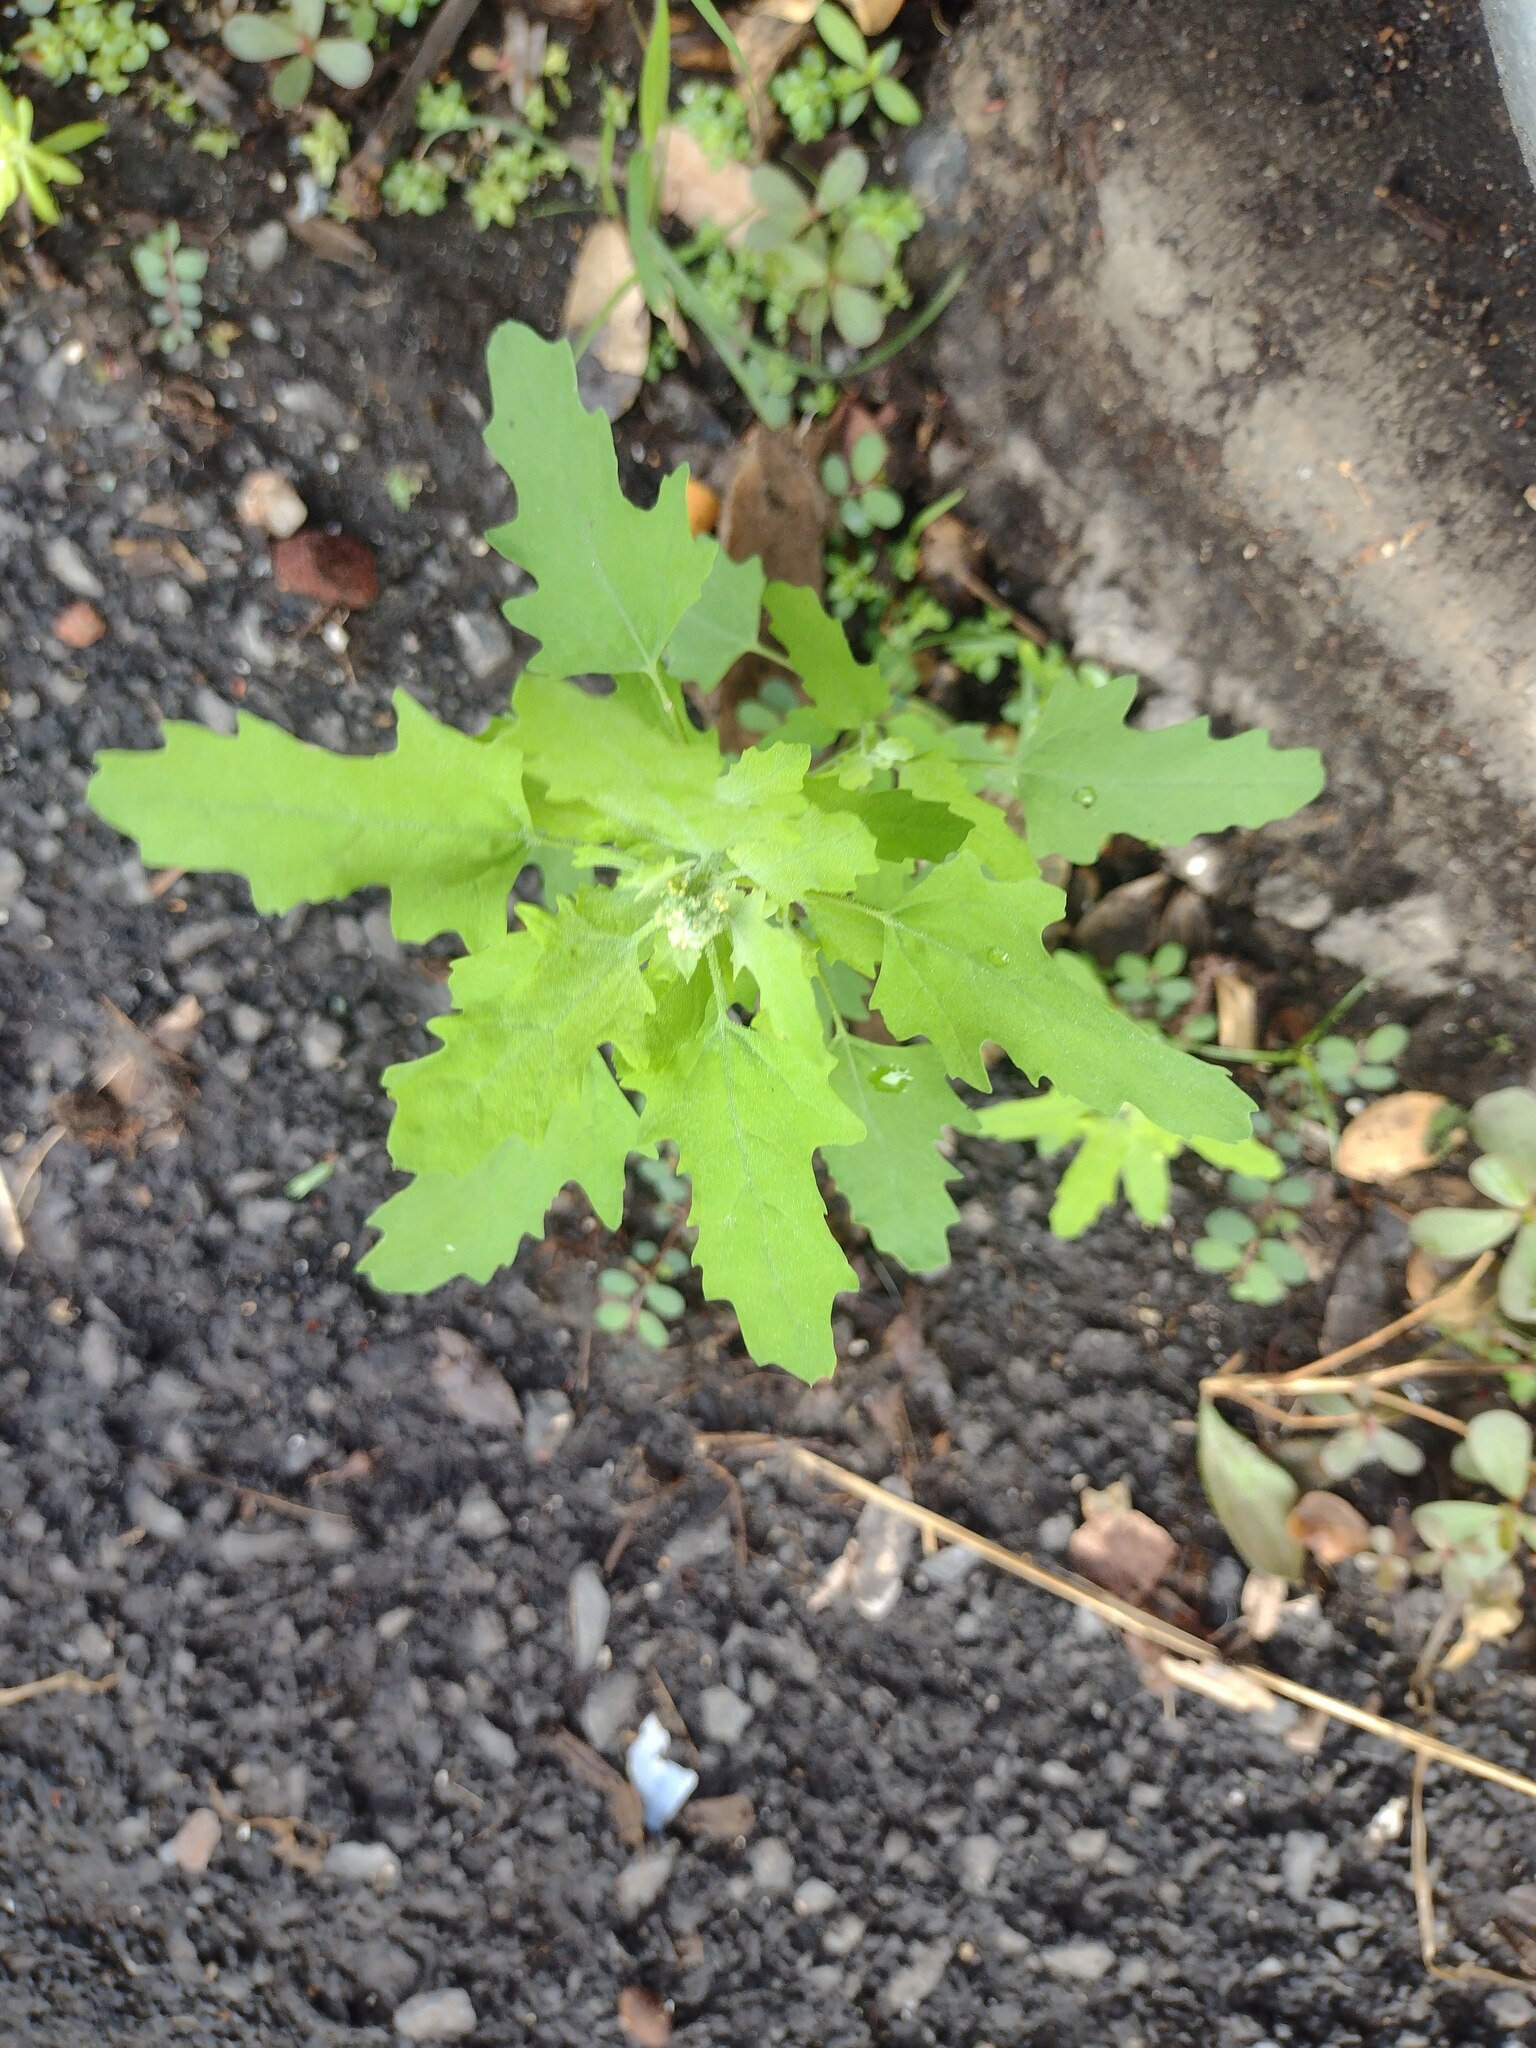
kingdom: Plantae
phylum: Tracheophyta
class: Magnoliopsida
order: Caryophyllales
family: Amaranthaceae
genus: Chenopodium
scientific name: Chenopodium ficifolium
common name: Fig-leaved goosefoot
